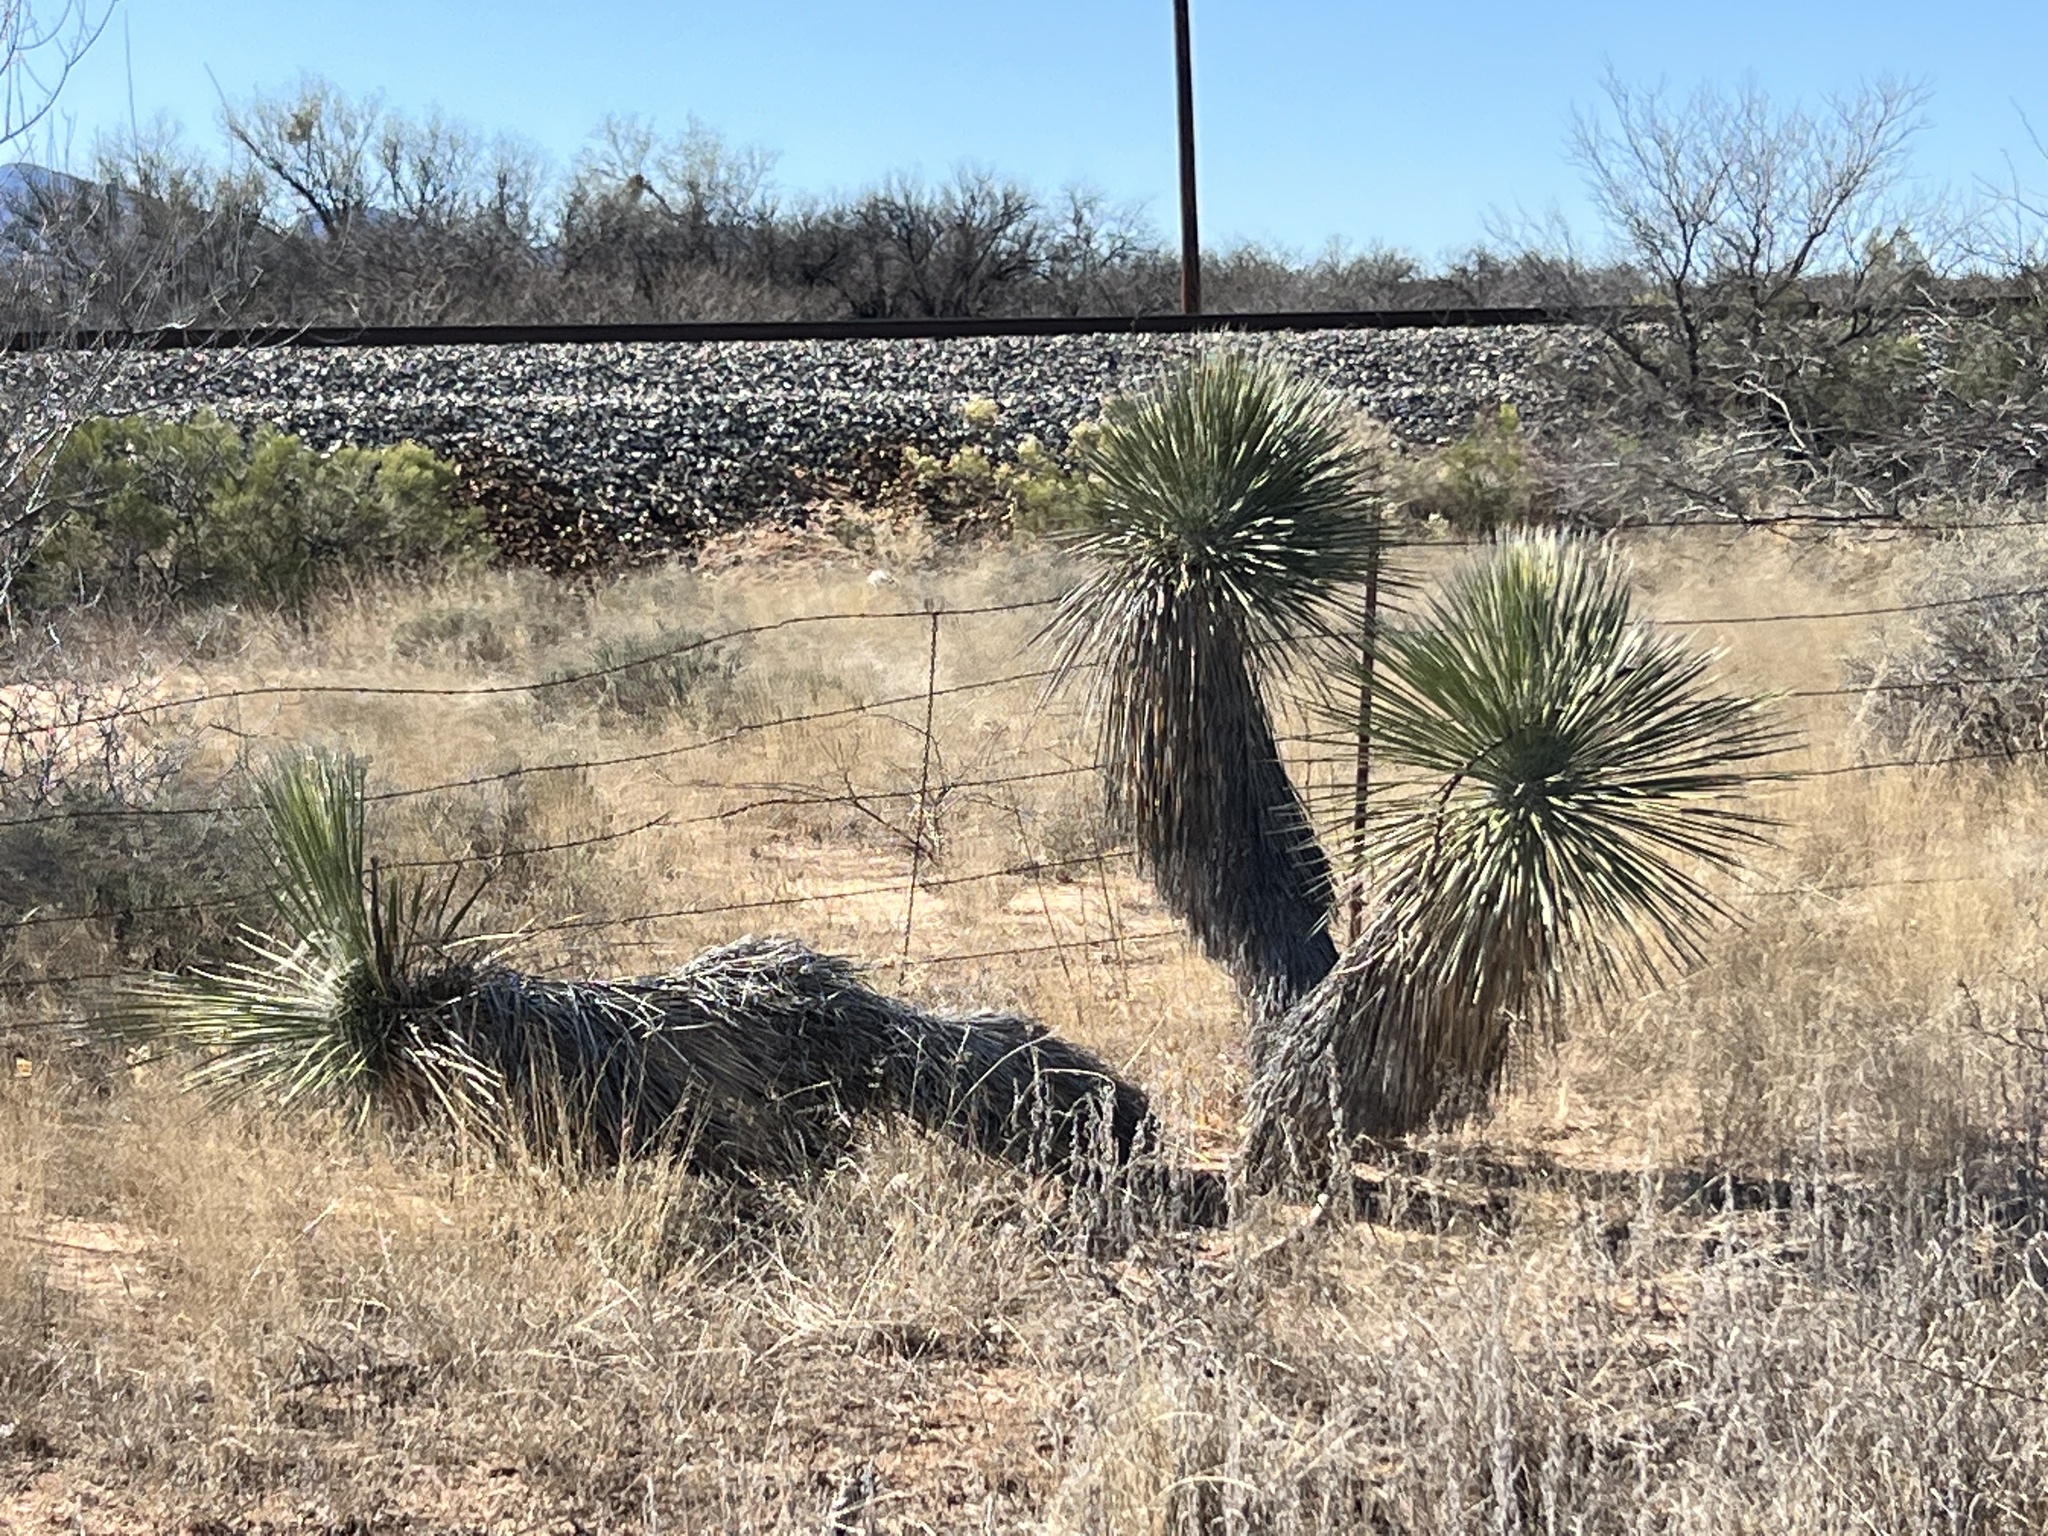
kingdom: Plantae
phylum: Tracheophyta
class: Liliopsida
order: Asparagales
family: Asparagaceae
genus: Yucca
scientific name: Yucca elata
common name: Palmella
